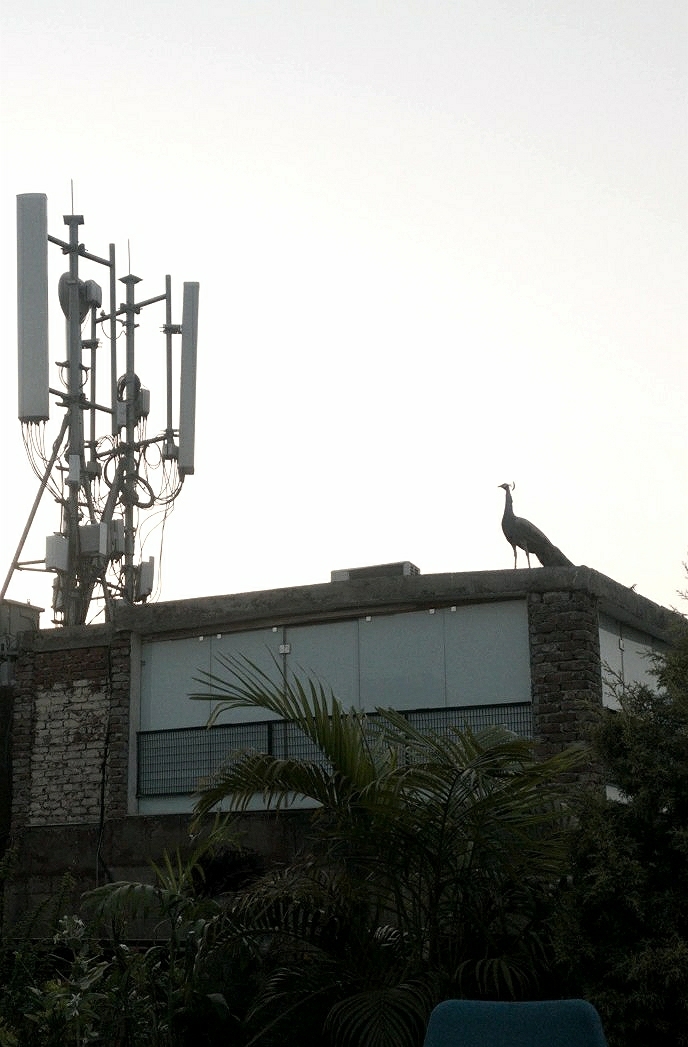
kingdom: Animalia
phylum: Chordata
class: Aves
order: Galliformes
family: Phasianidae
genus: Pavo
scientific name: Pavo cristatus
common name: Indian peafowl
